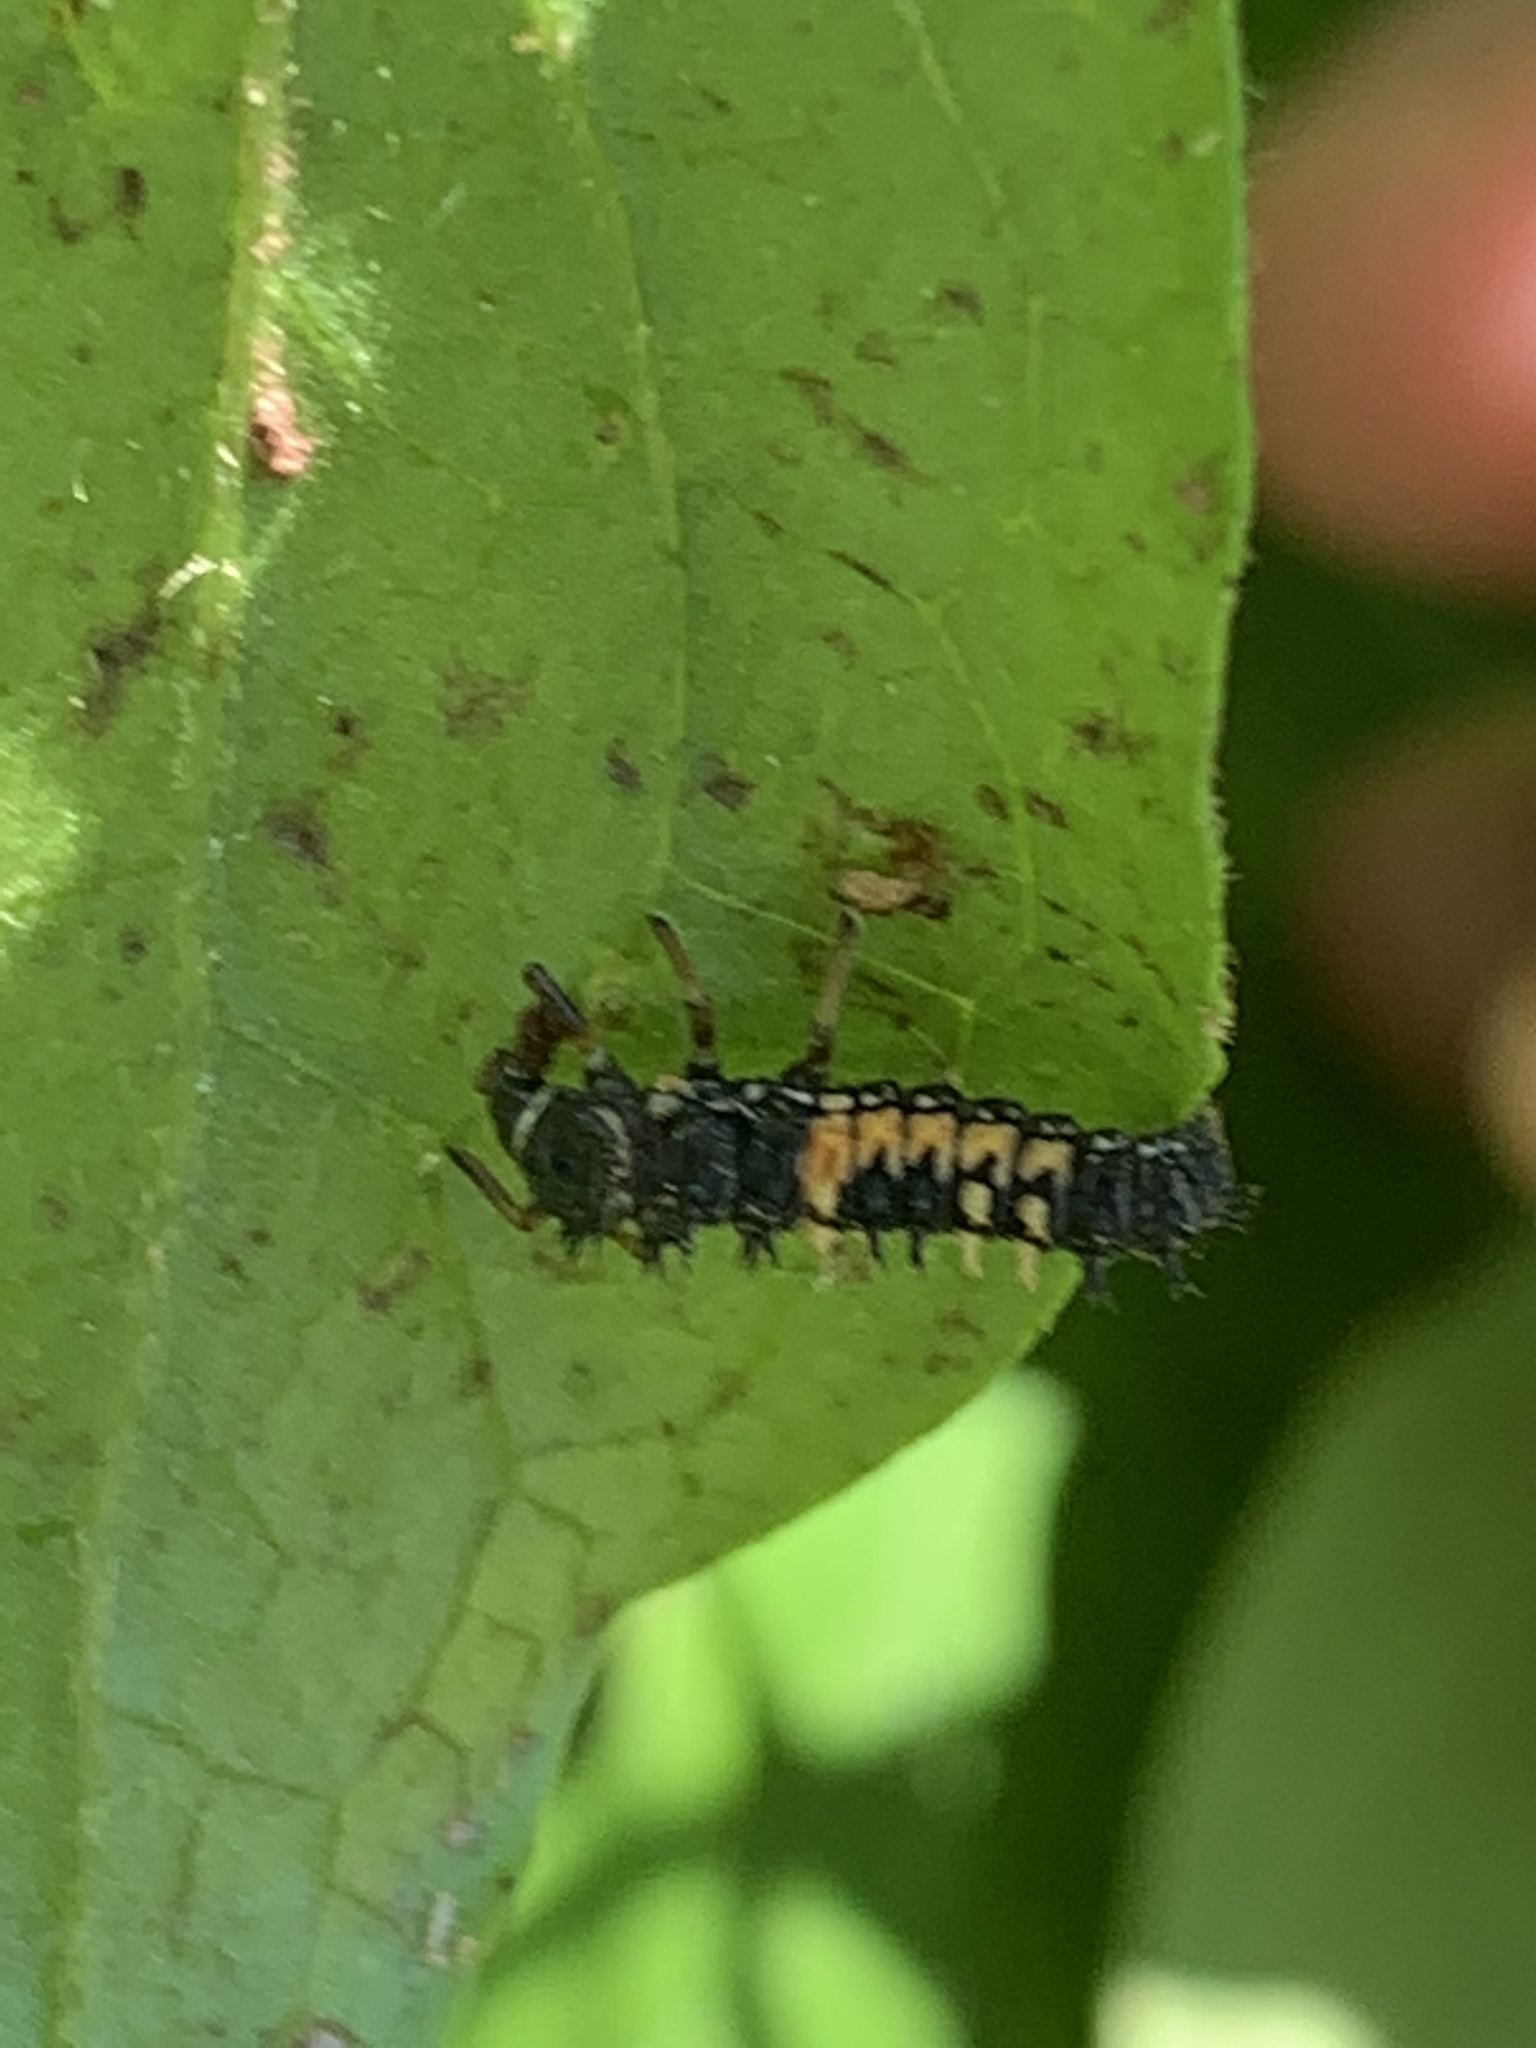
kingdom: Animalia
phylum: Arthropoda
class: Insecta
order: Coleoptera
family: Coccinellidae
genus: Harmonia
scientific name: Harmonia axyridis
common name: Harlequin ladybird
